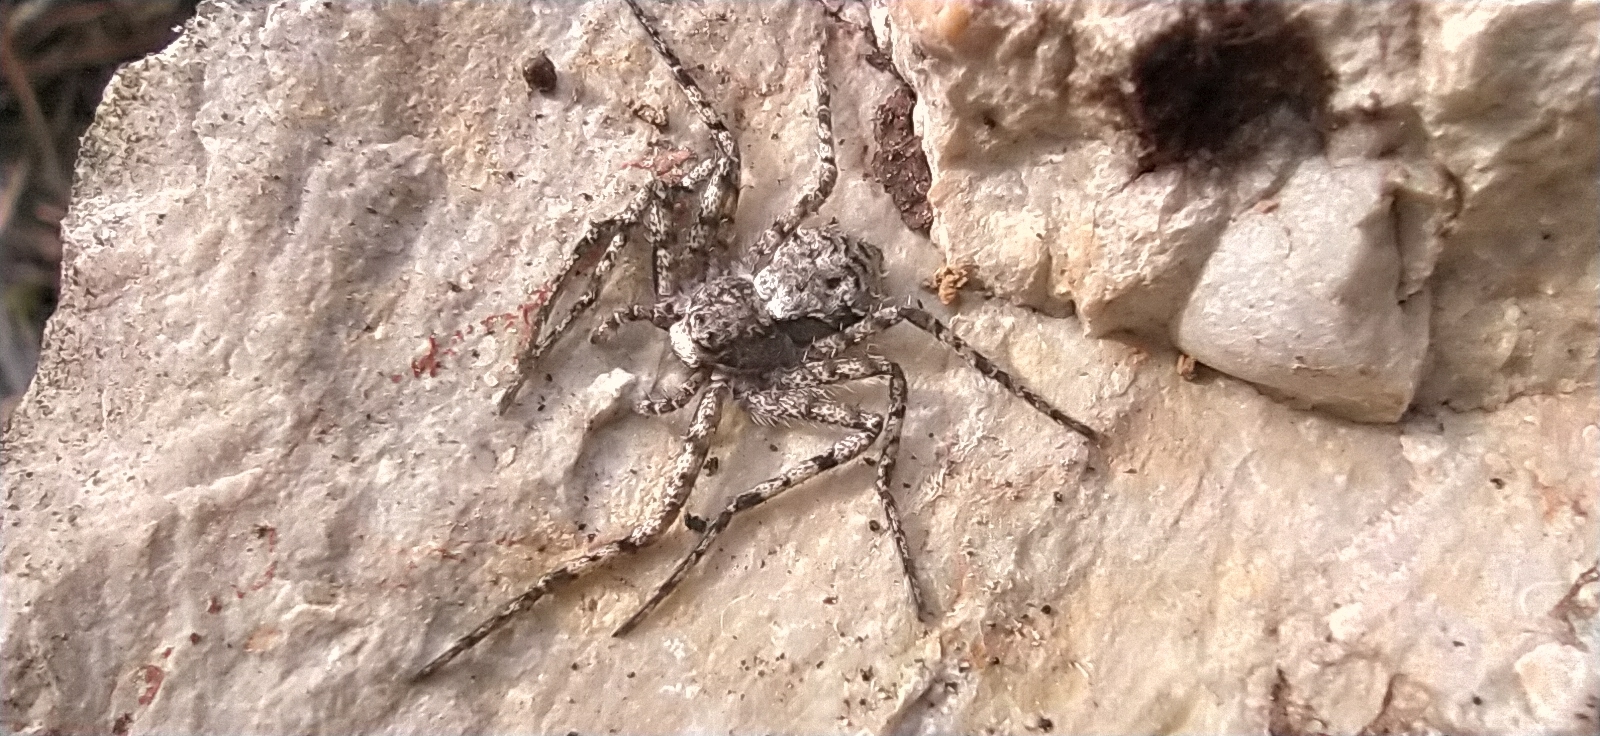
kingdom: Animalia
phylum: Arthropoda
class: Arachnida
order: Araneae
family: Philodromidae
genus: Philodromus
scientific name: Philodromus margaritatus
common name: Lichen running-spider
